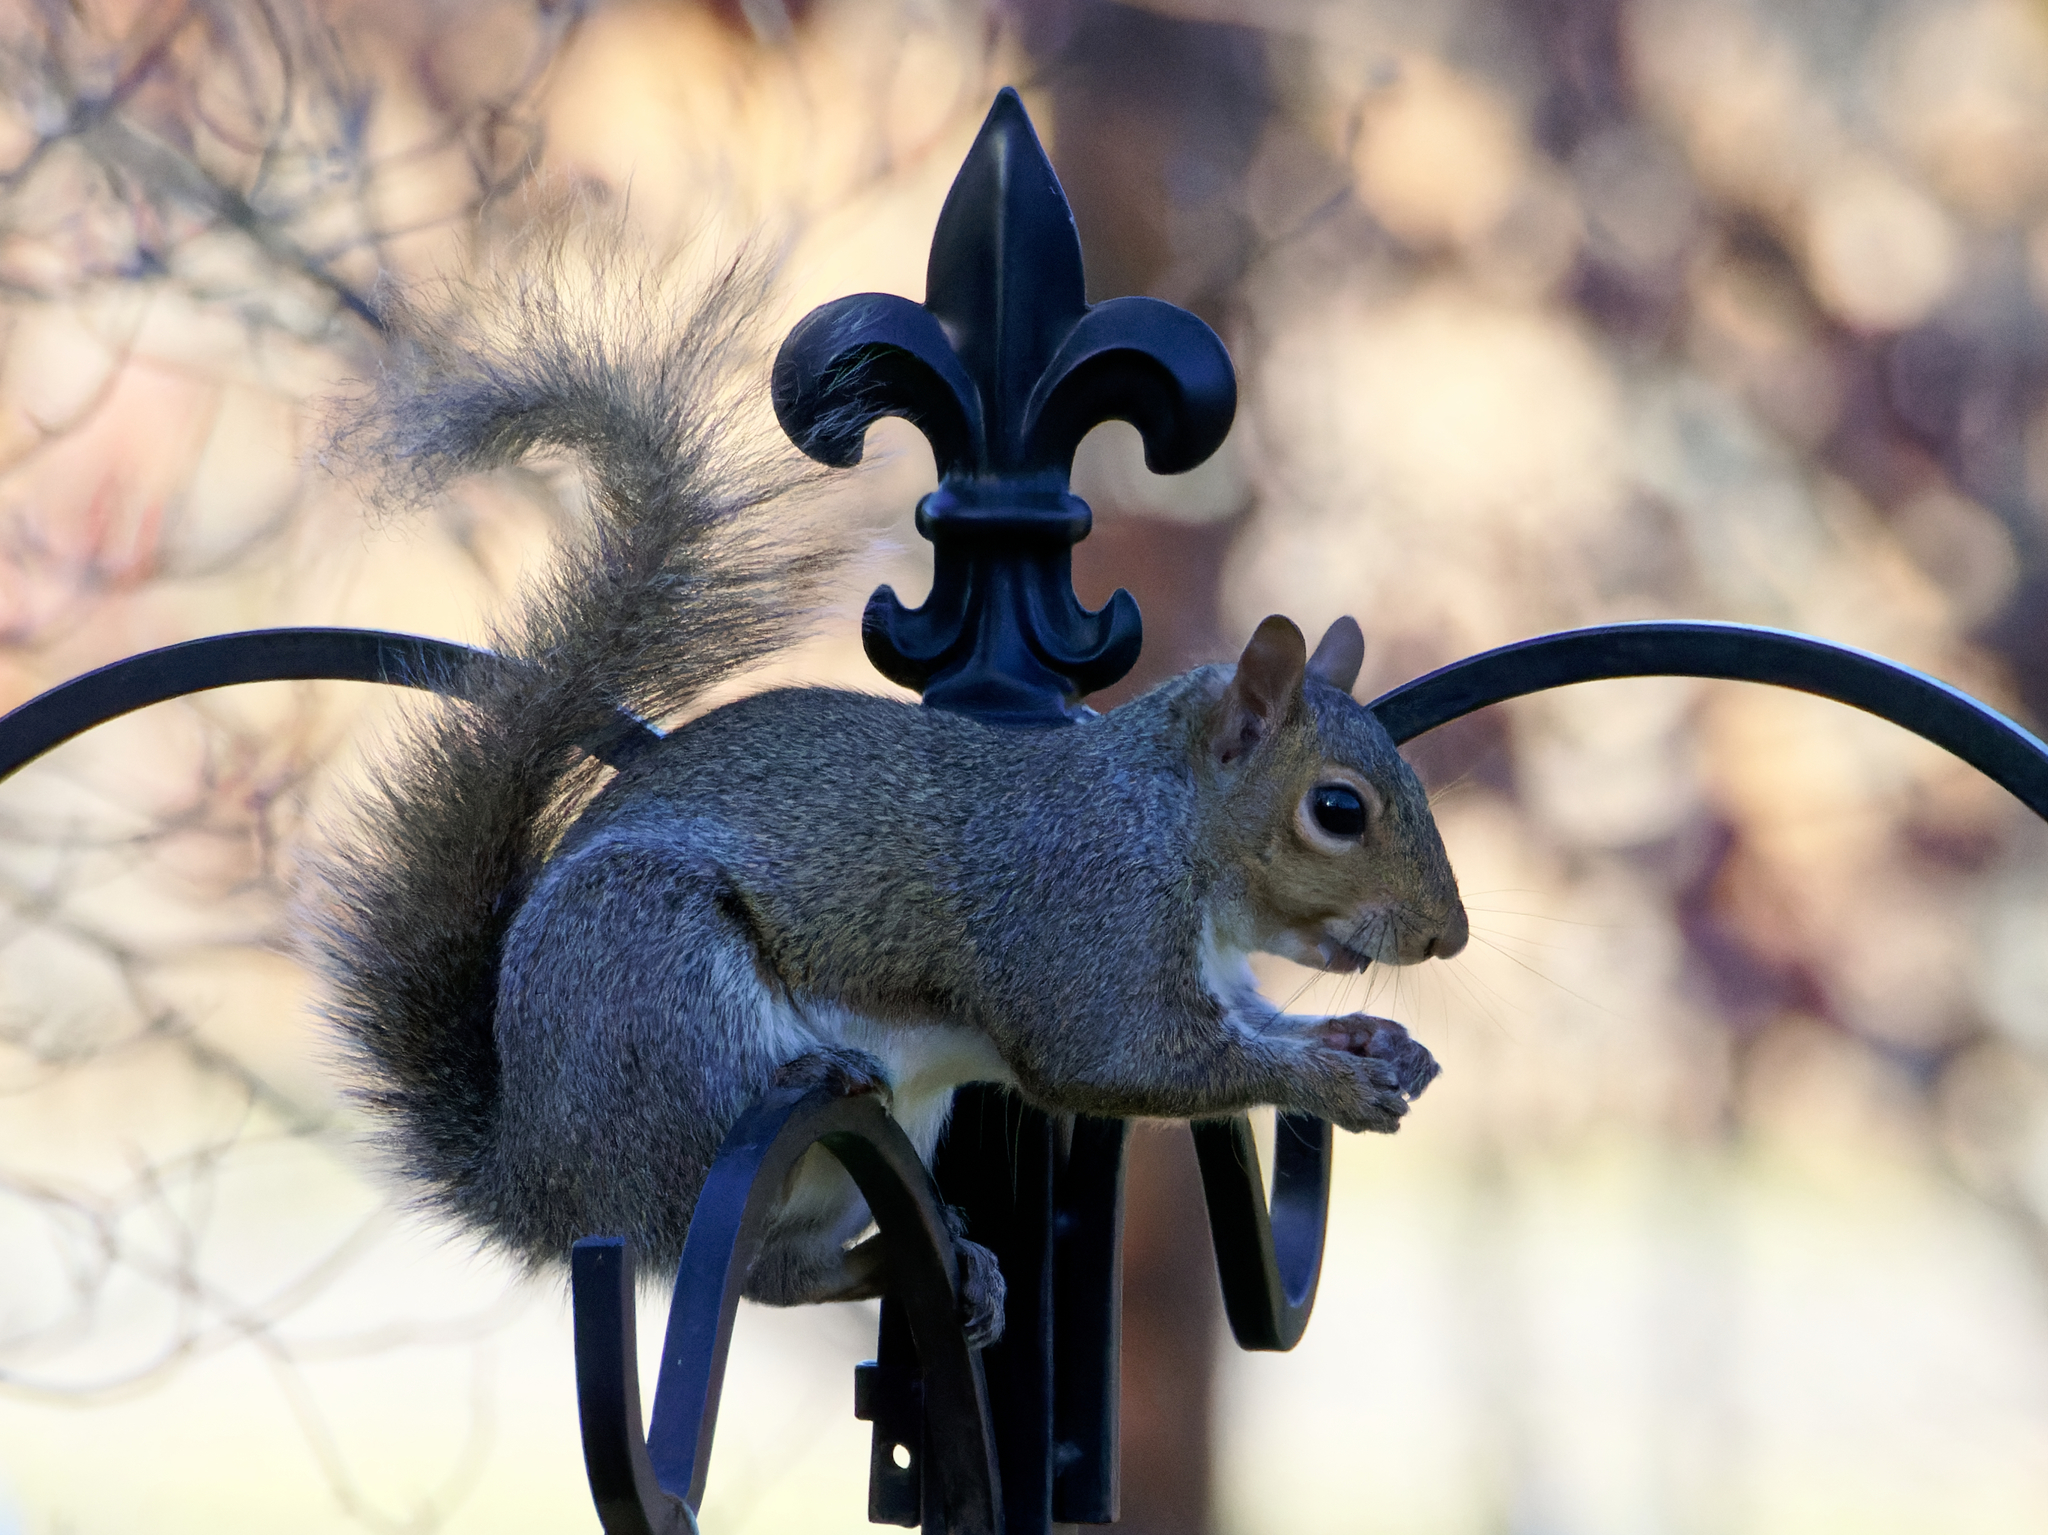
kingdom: Animalia
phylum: Chordata
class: Mammalia
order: Rodentia
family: Sciuridae
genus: Sciurus
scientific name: Sciurus carolinensis
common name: Eastern gray squirrel
